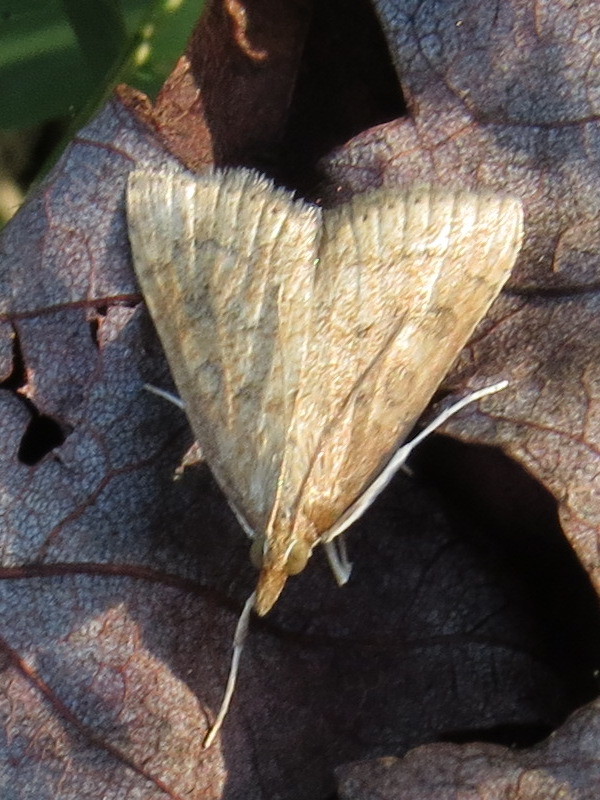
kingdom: Animalia
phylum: Arthropoda
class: Insecta
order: Lepidoptera
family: Crambidae
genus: Udea
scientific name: Udea rubigalis
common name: Celery leaftier moth
